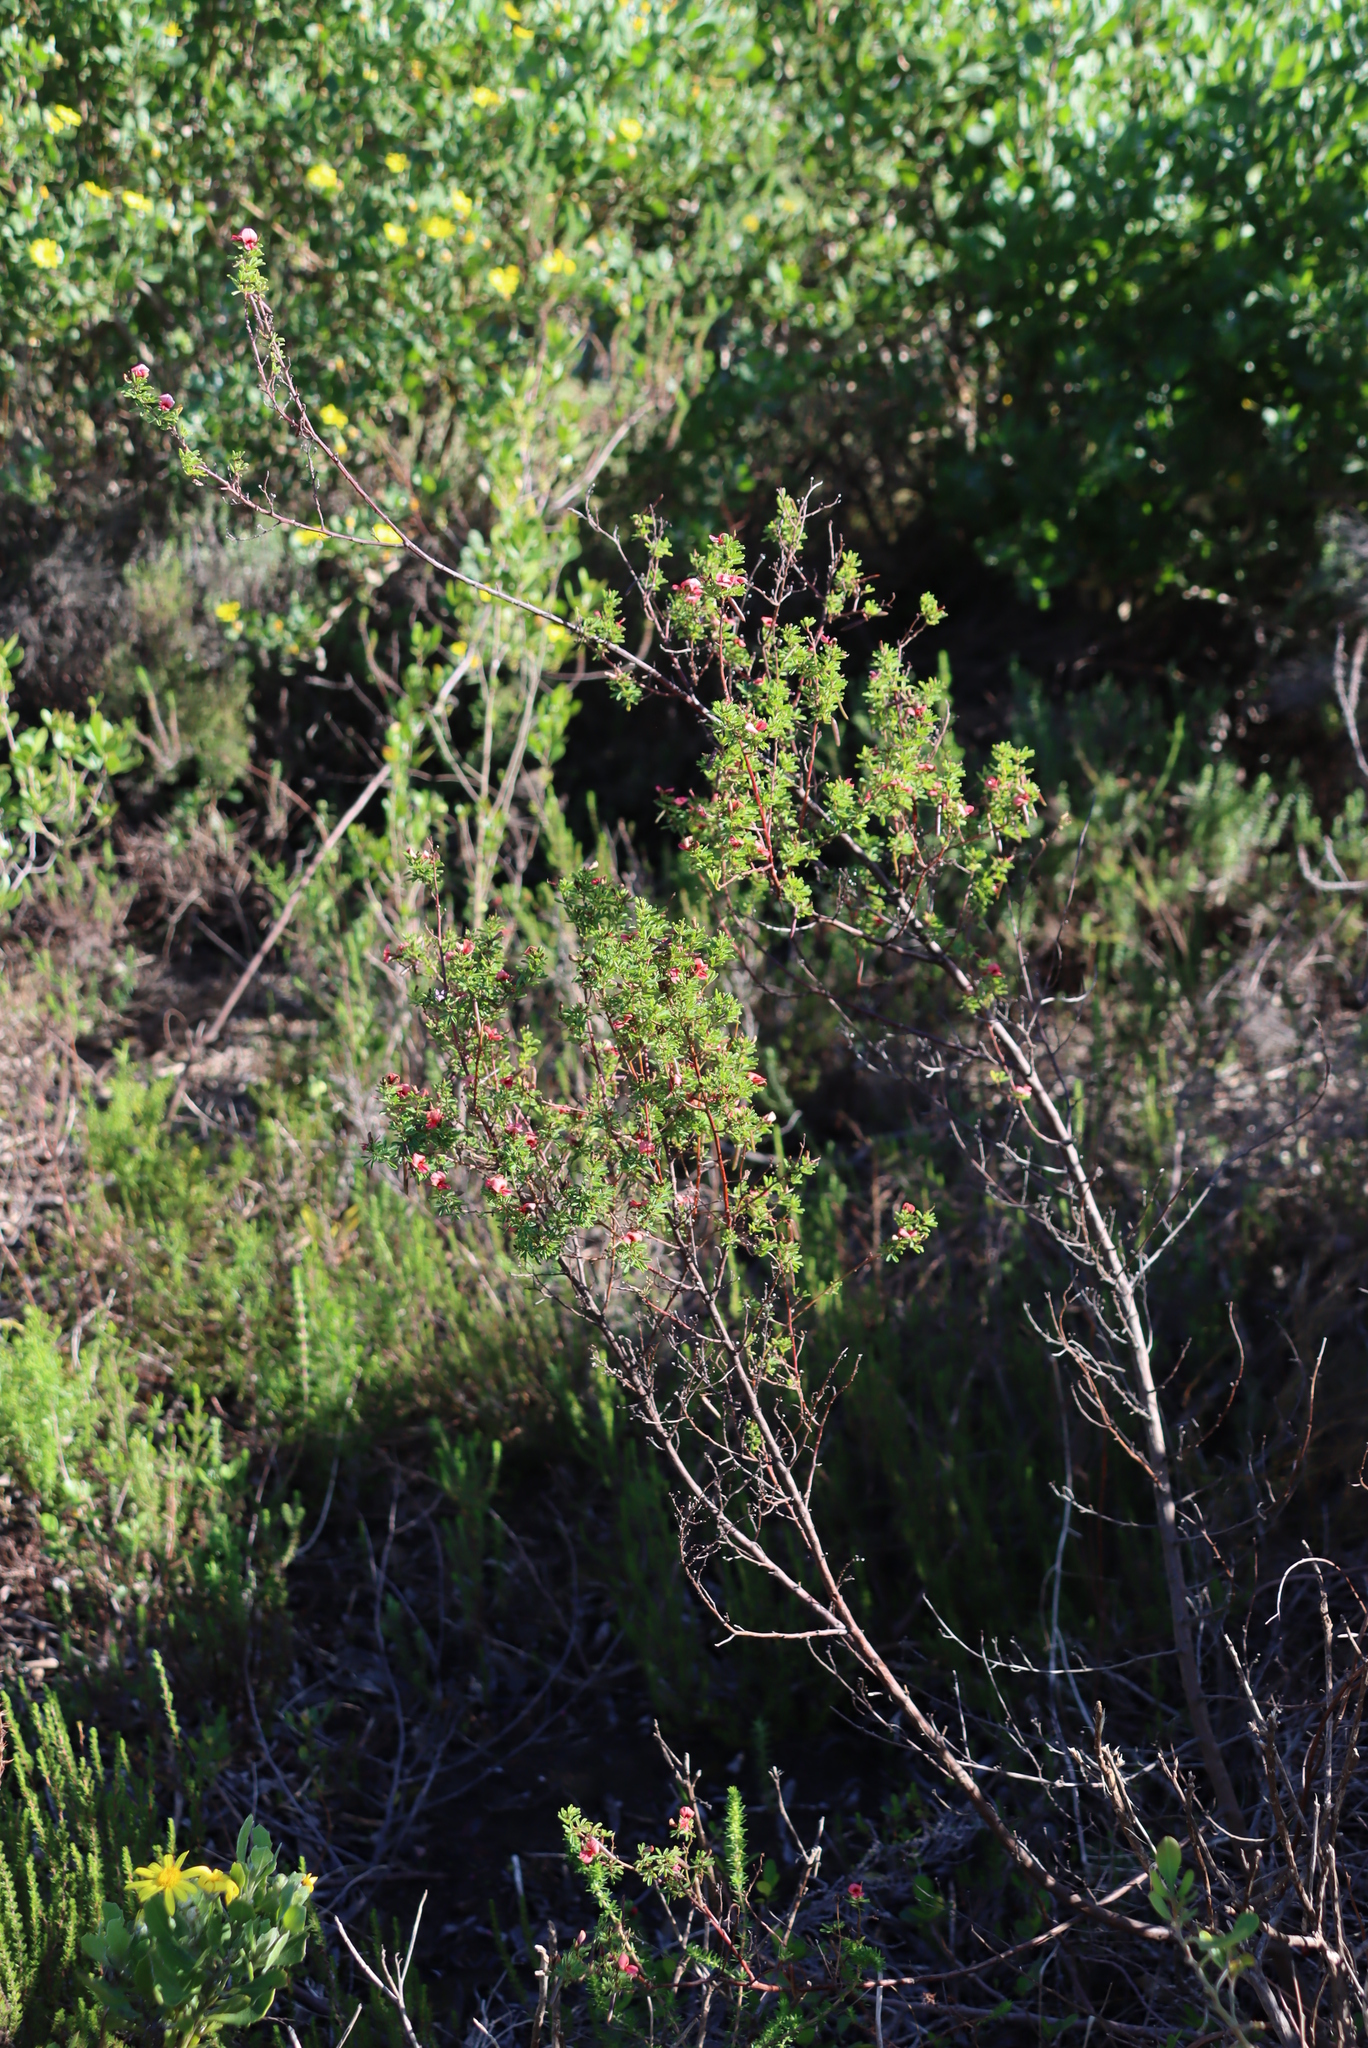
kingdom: Plantae
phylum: Tracheophyta
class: Magnoliopsida
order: Fabales
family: Fabaceae
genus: Indigofera
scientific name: Indigofera stricta
